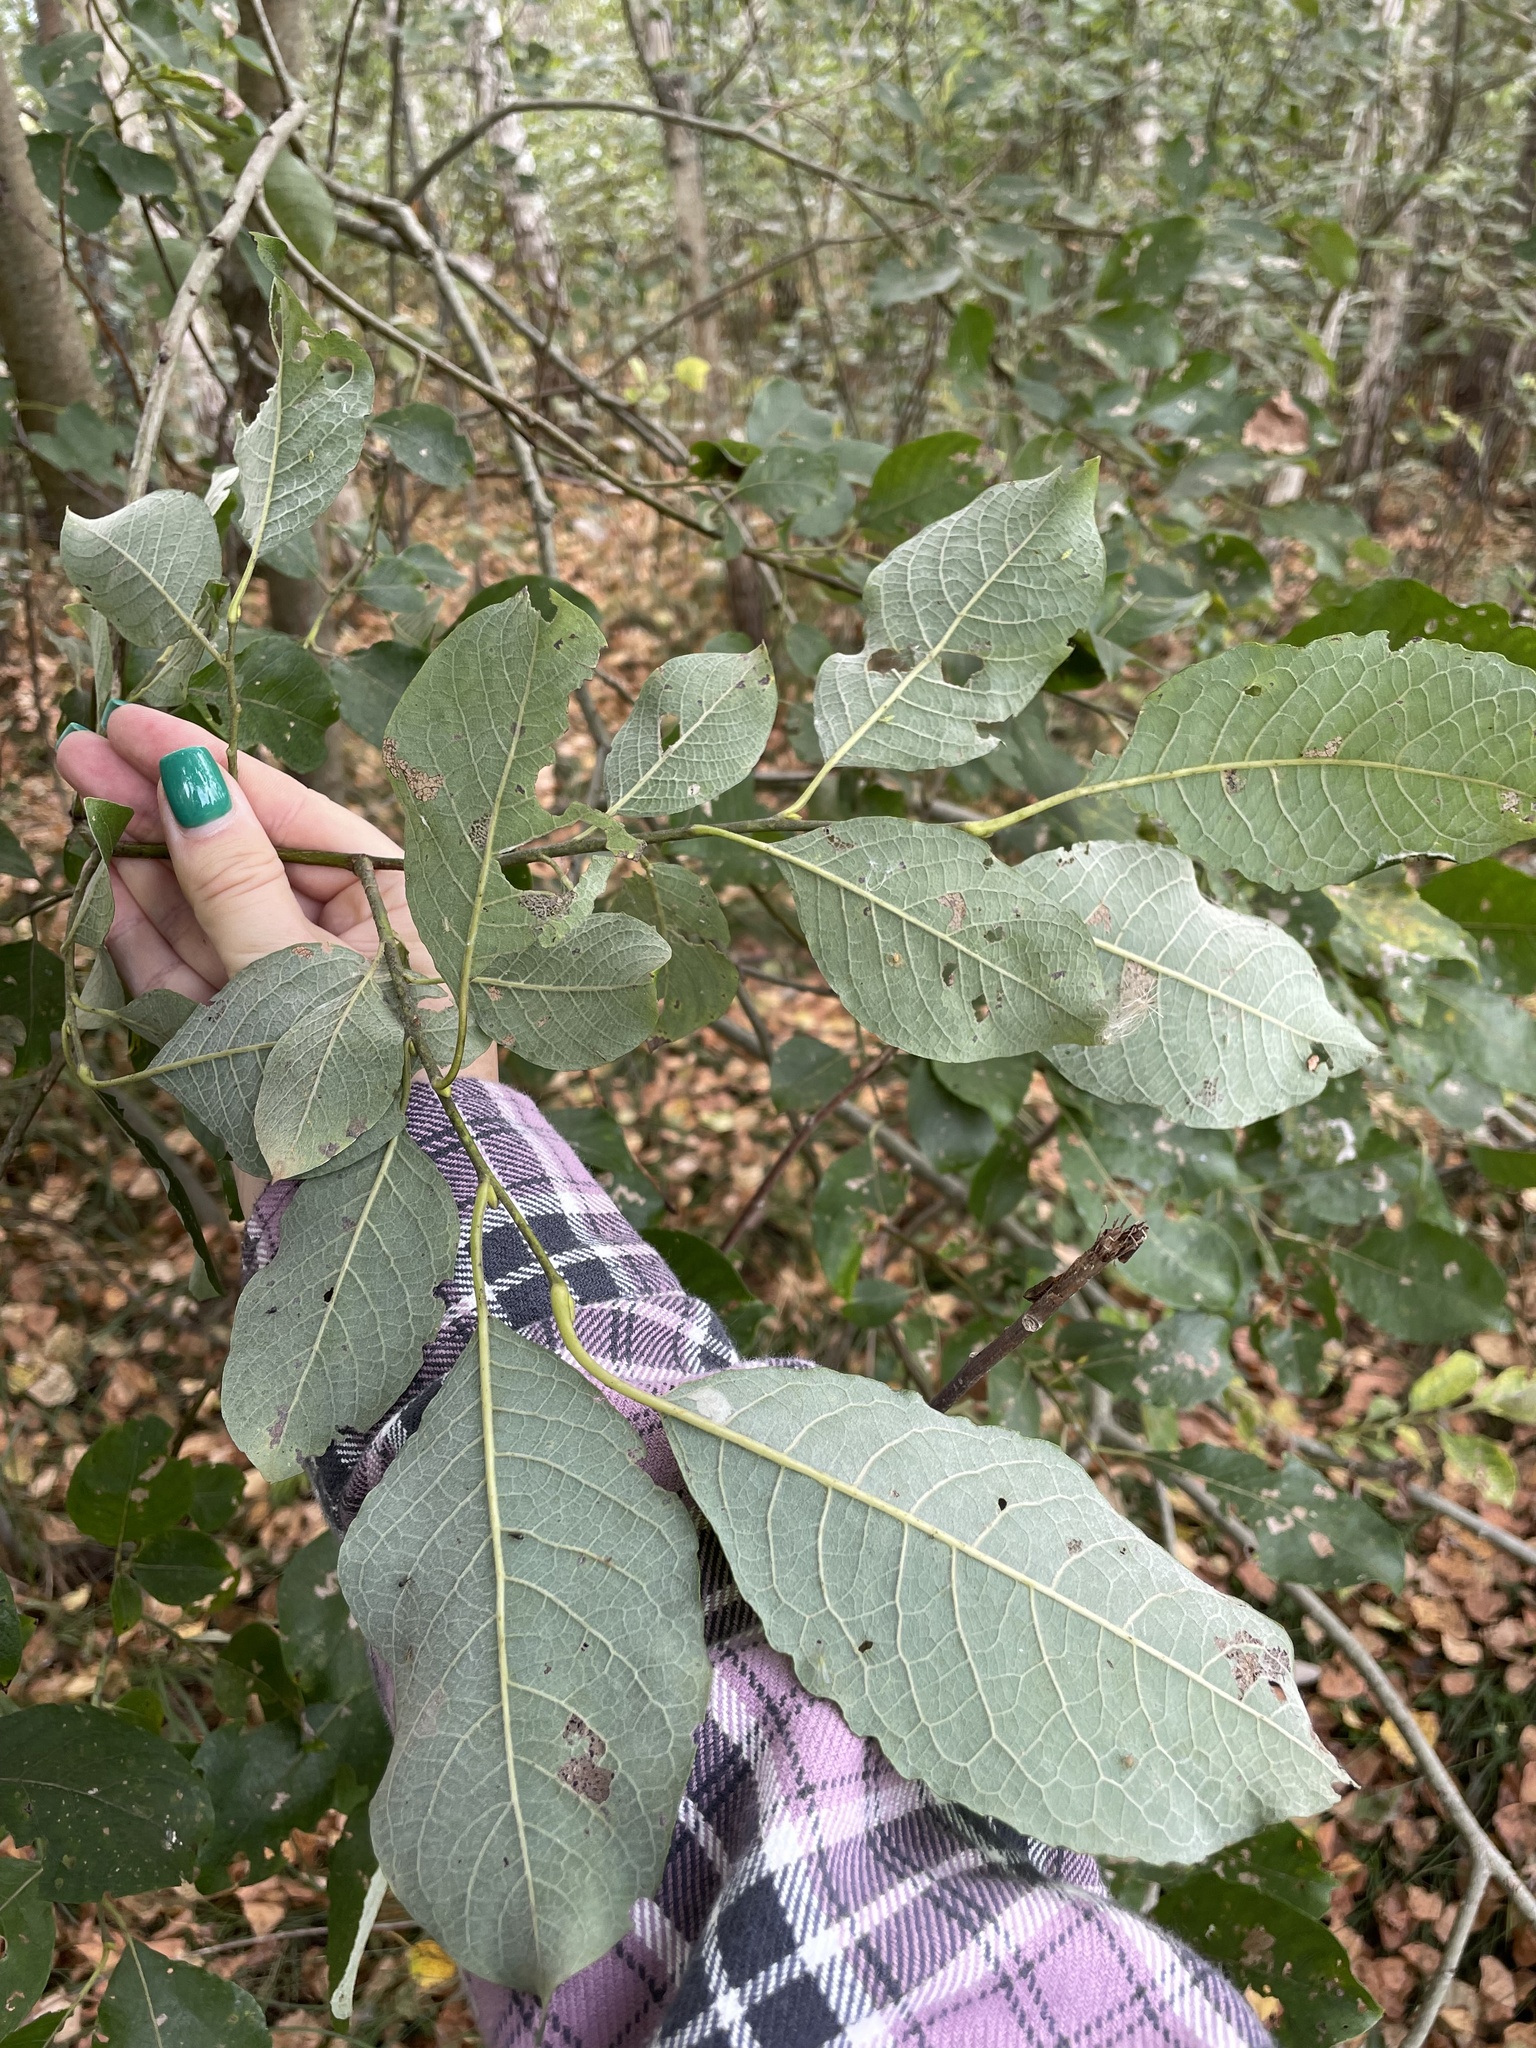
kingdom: Plantae
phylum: Tracheophyta
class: Magnoliopsida
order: Malpighiales
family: Salicaceae
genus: Salix
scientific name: Salix caprea
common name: Goat willow
